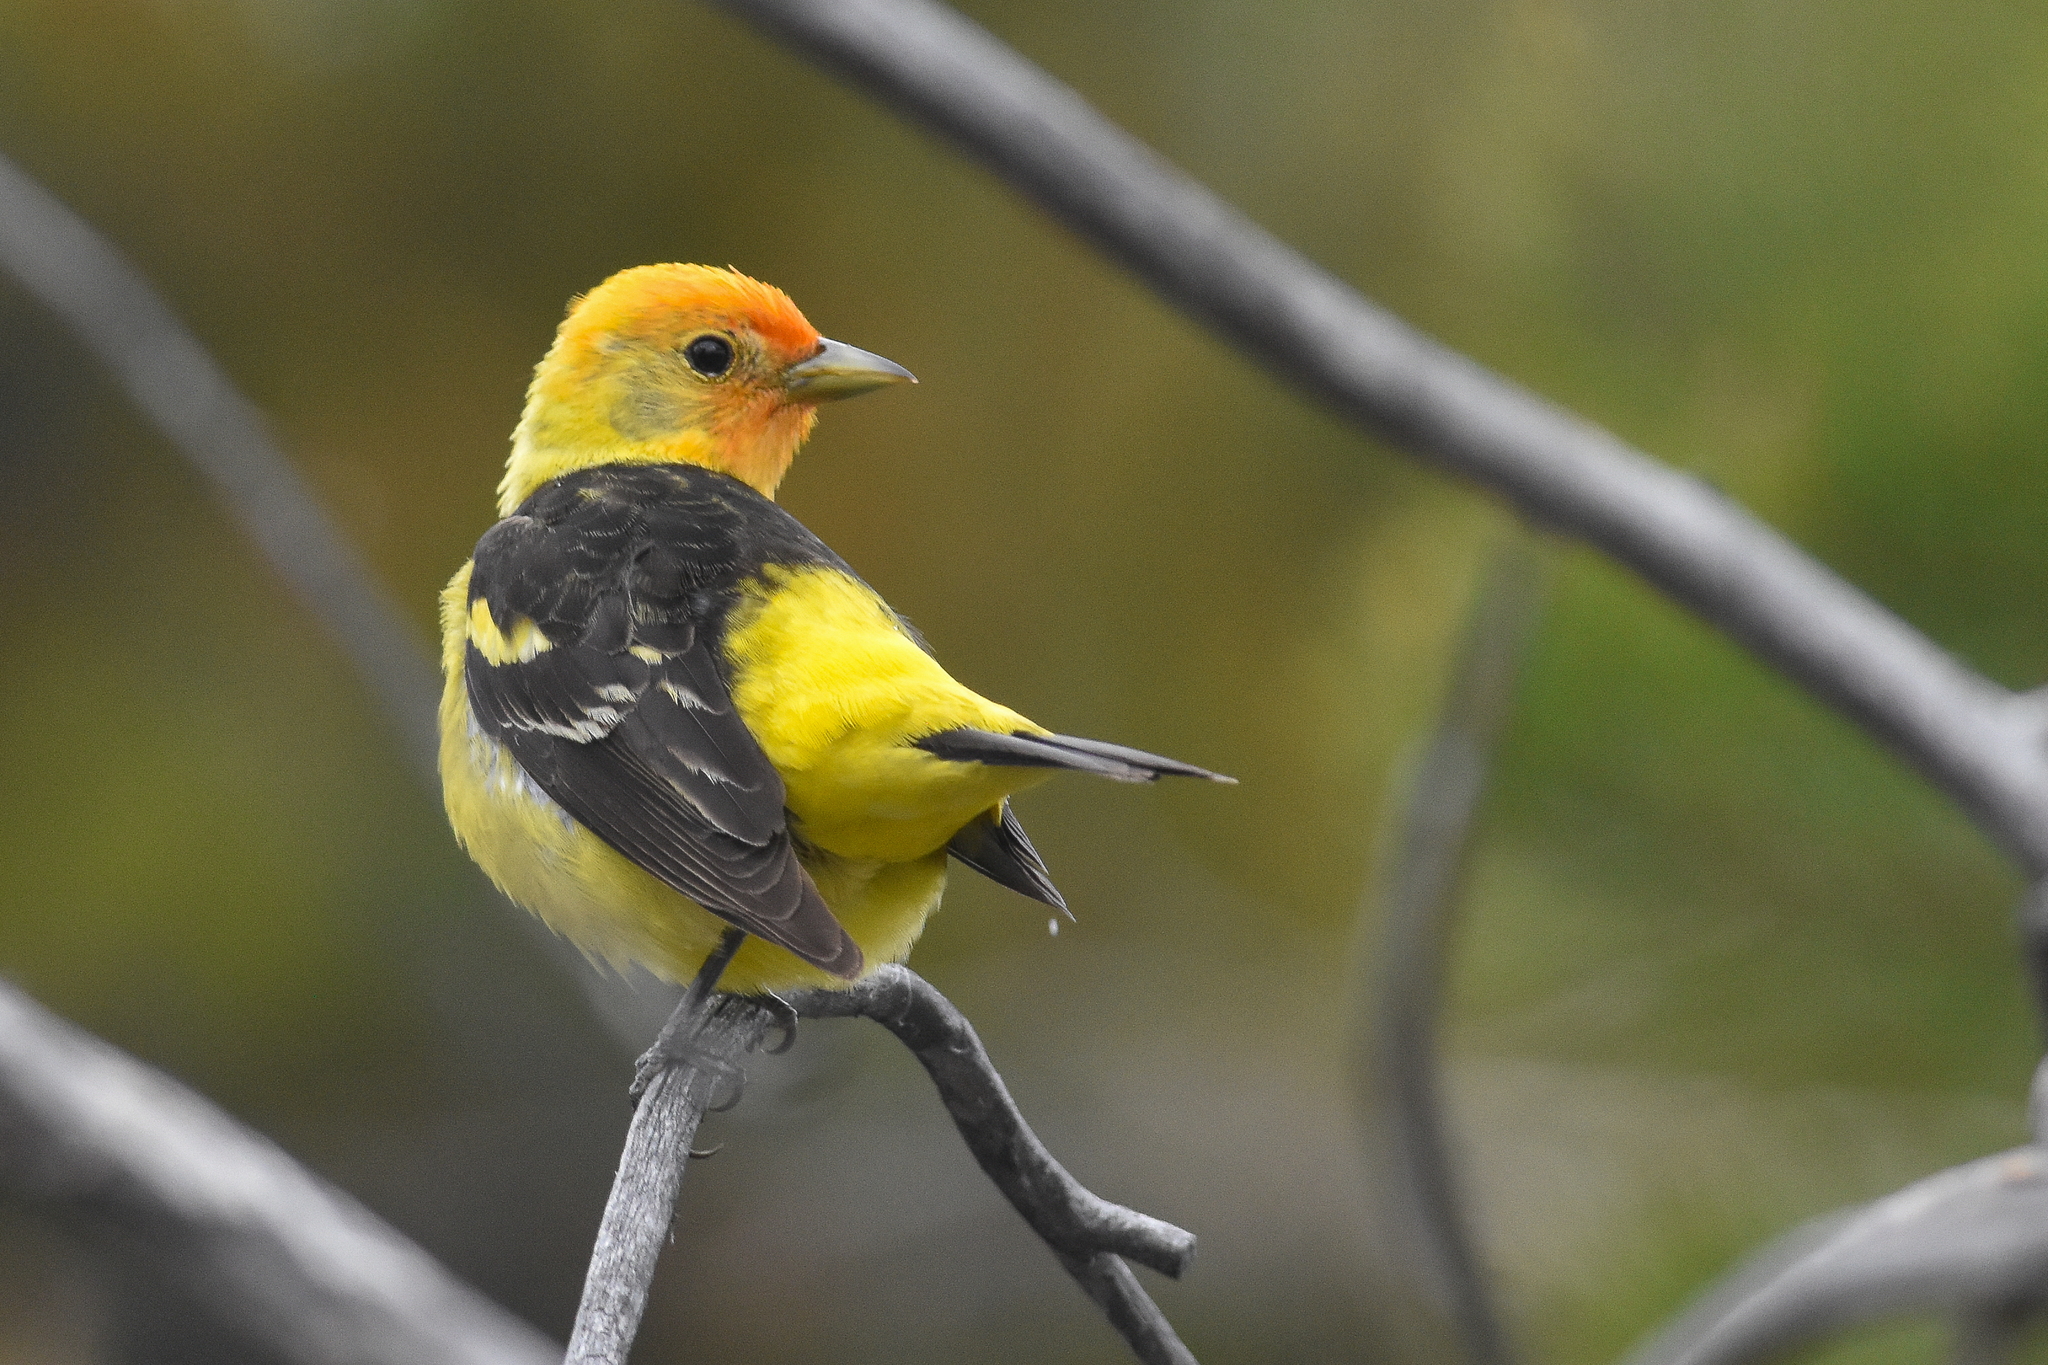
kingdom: Animalia
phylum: Chordata
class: Aves
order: Passeriformes
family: Cardinalidae
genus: Piranga
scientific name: Piranga ludoviciana
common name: Western tanager
